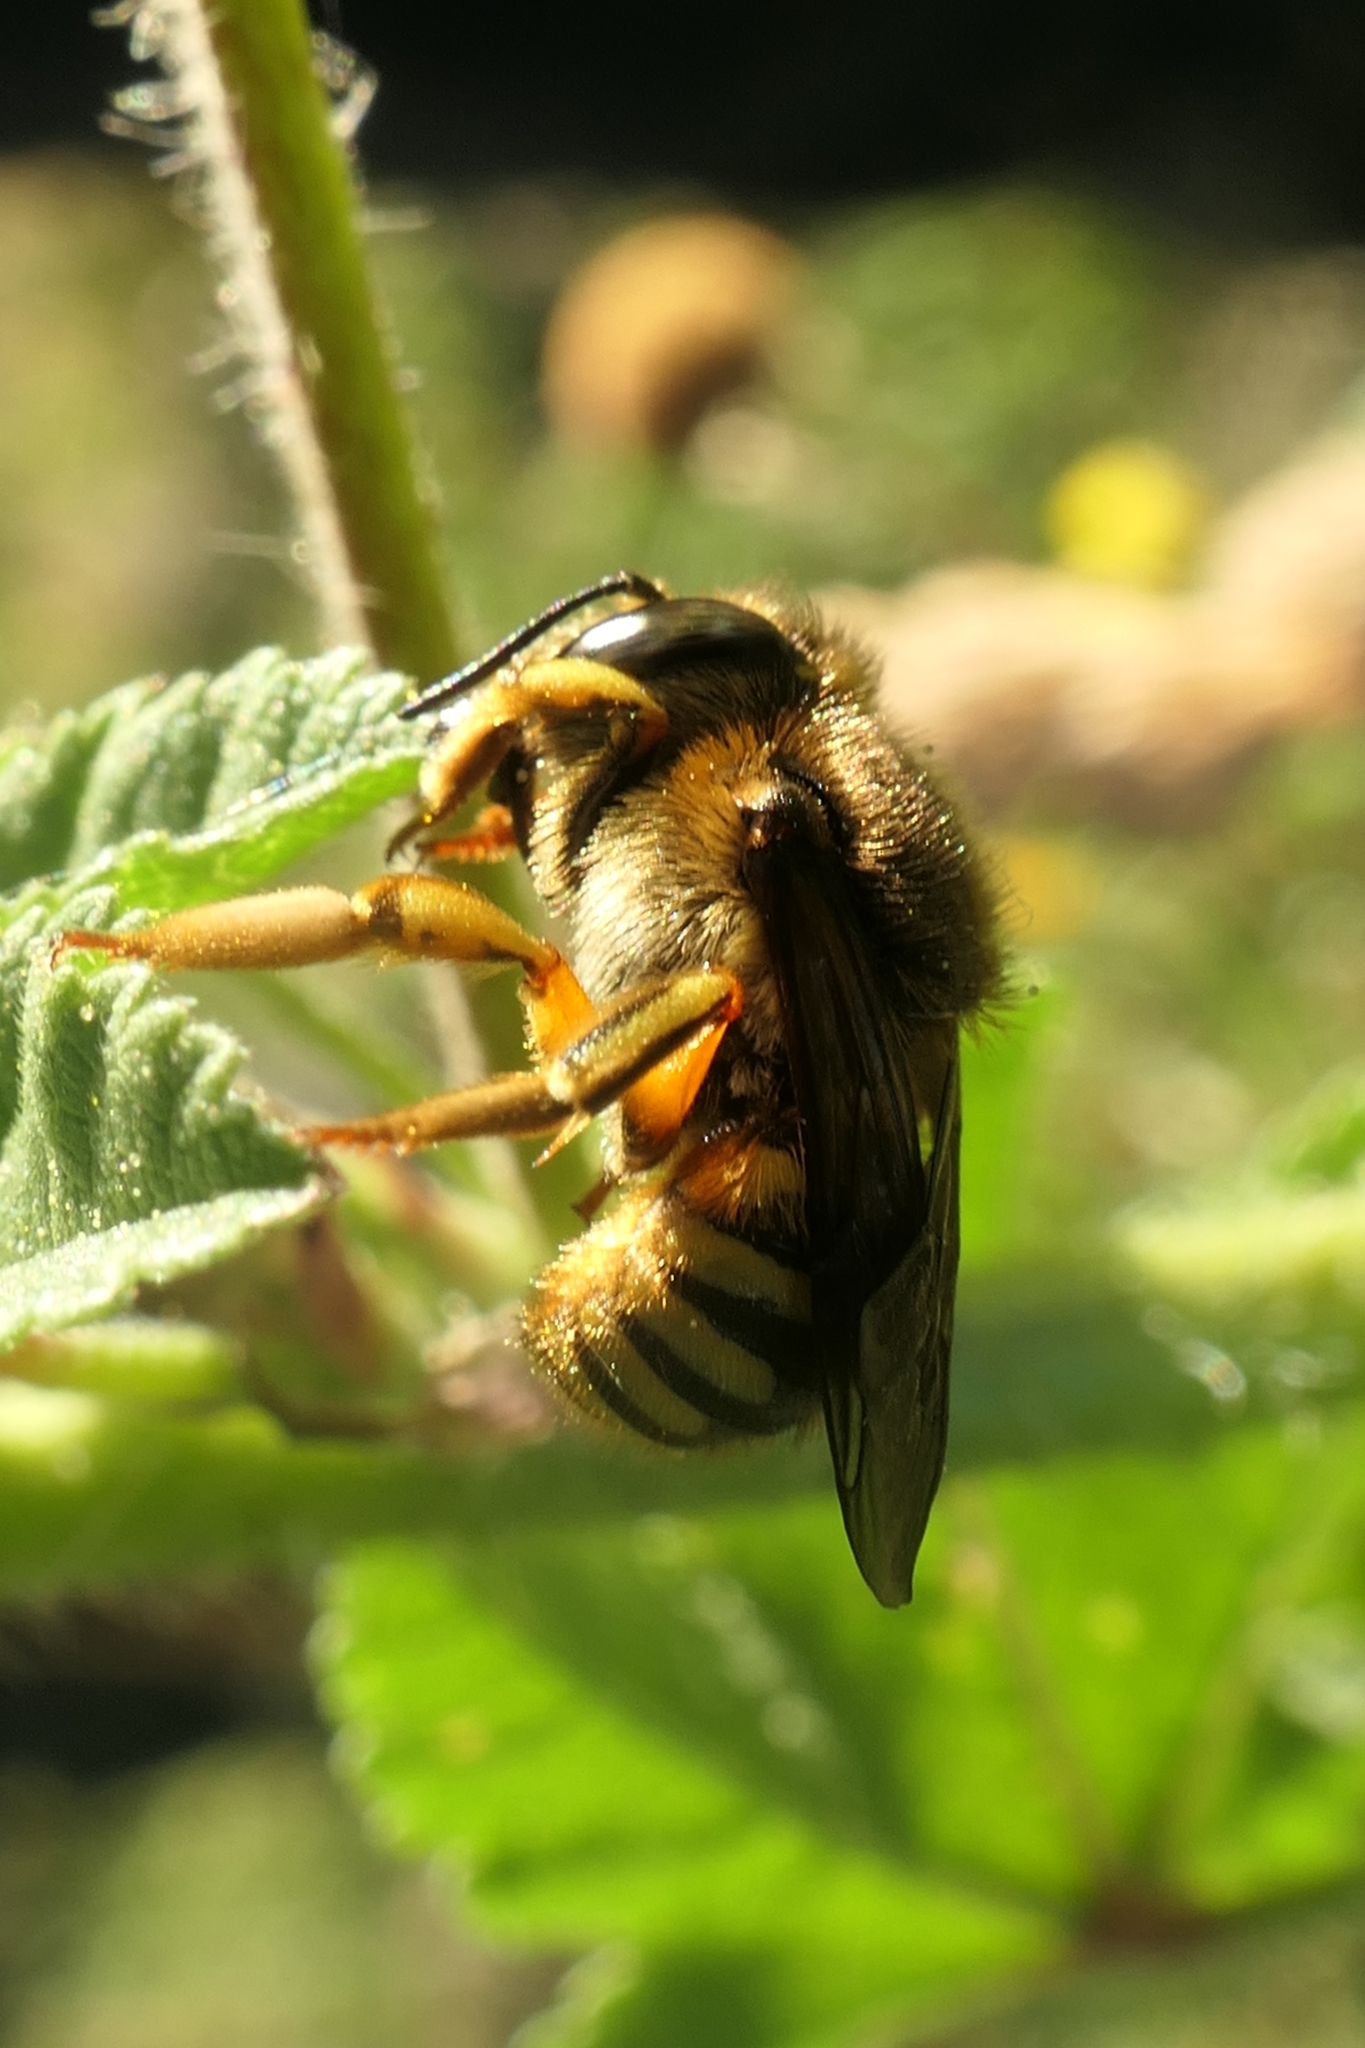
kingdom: Animalia
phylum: Arthropoda
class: Insecta
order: Hymenoptera
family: Megachilidae
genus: Anthidium
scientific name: Anthidium manicatum
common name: Wool carder bee
